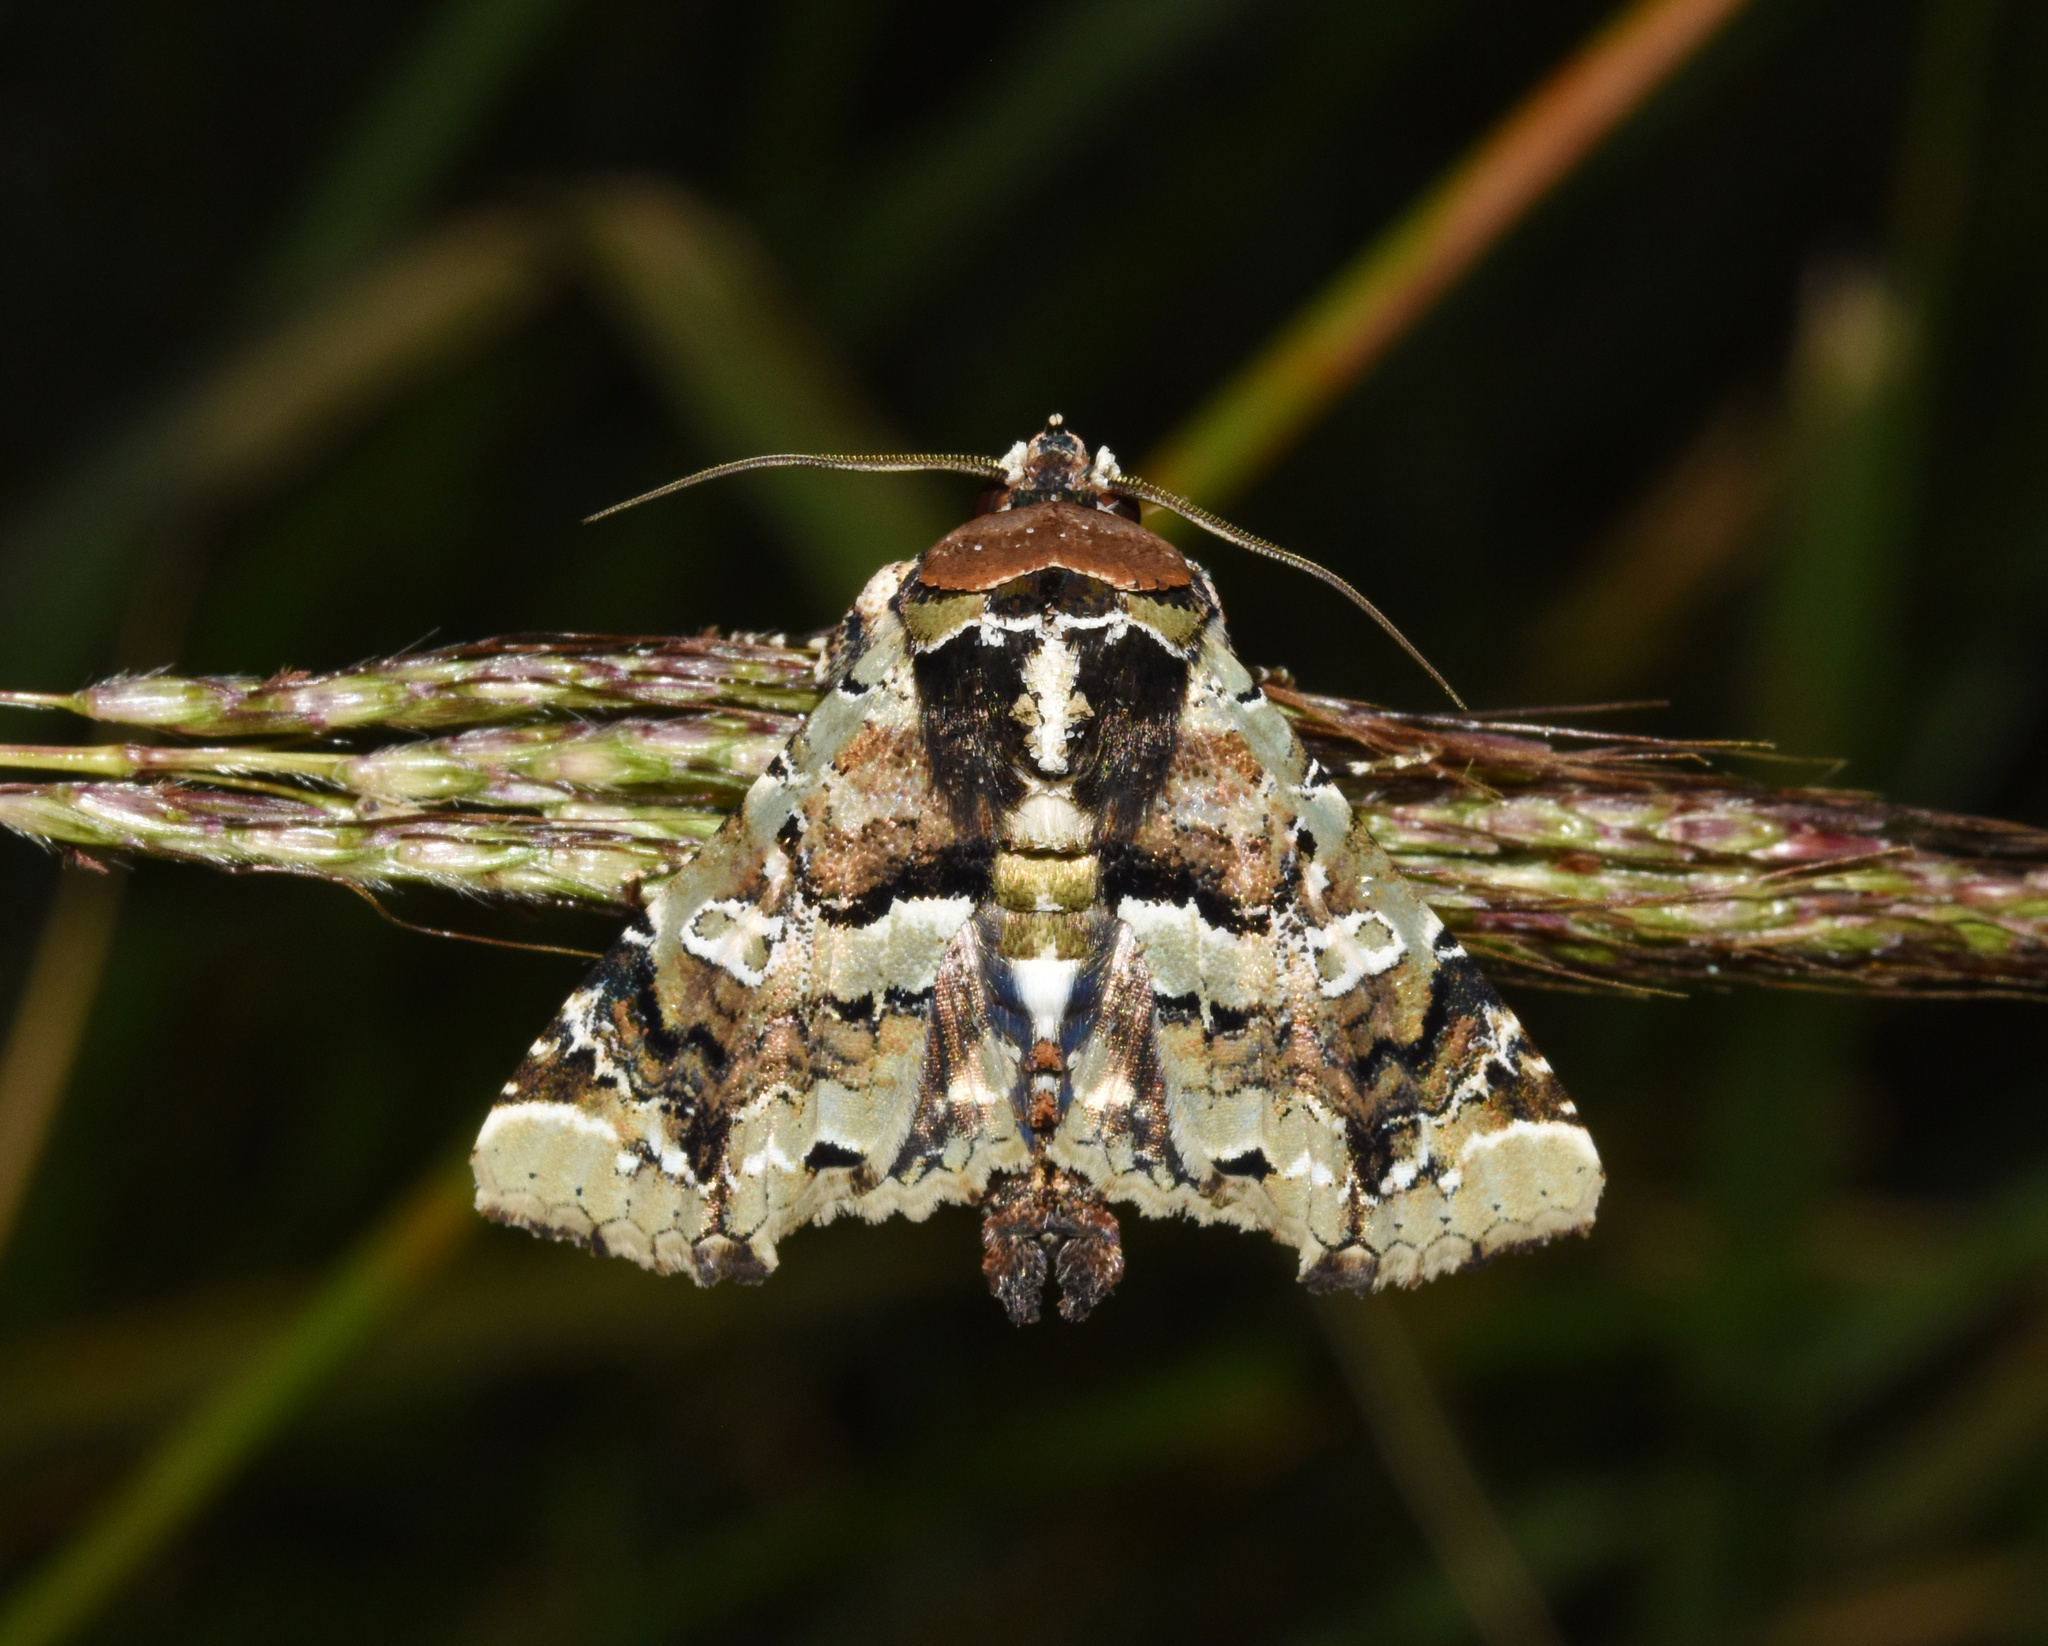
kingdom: Animalia
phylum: Arthropoda
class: Insecta
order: Lepidoptera
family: Euteliidae
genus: Eutelia
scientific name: Eutelia bowkeri
